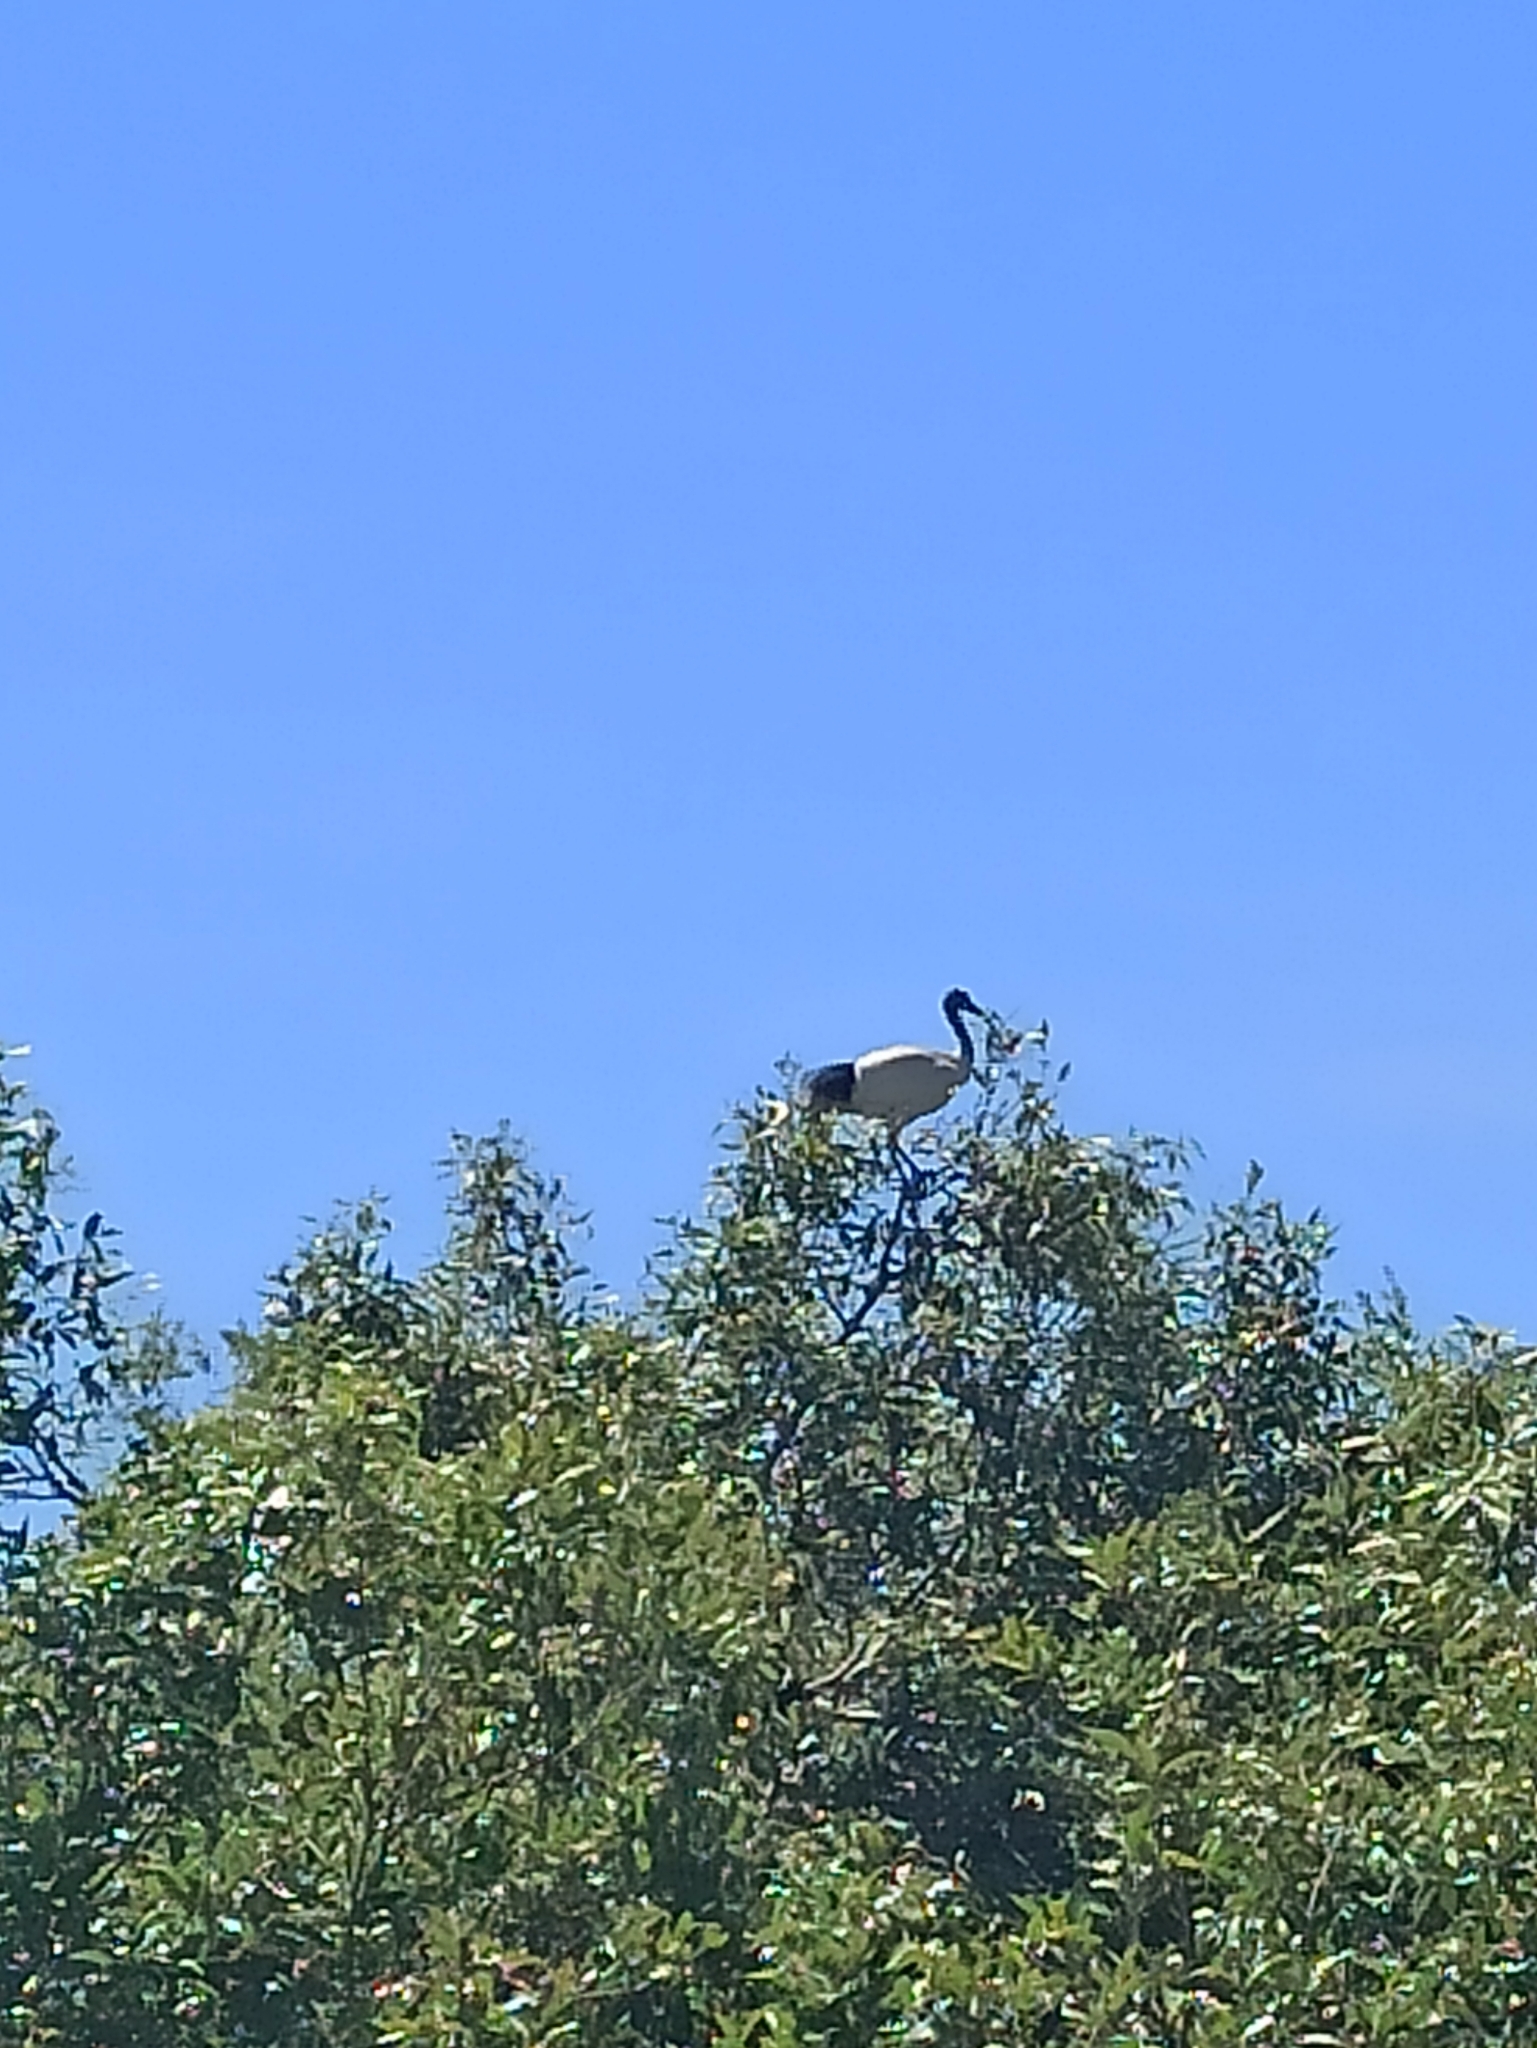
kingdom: Animalia
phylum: Chordata
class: Aves
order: Pelecaniformes
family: Threskiornithidae
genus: Threskiornis
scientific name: Threskiornis molucca
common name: Australian white ibis
